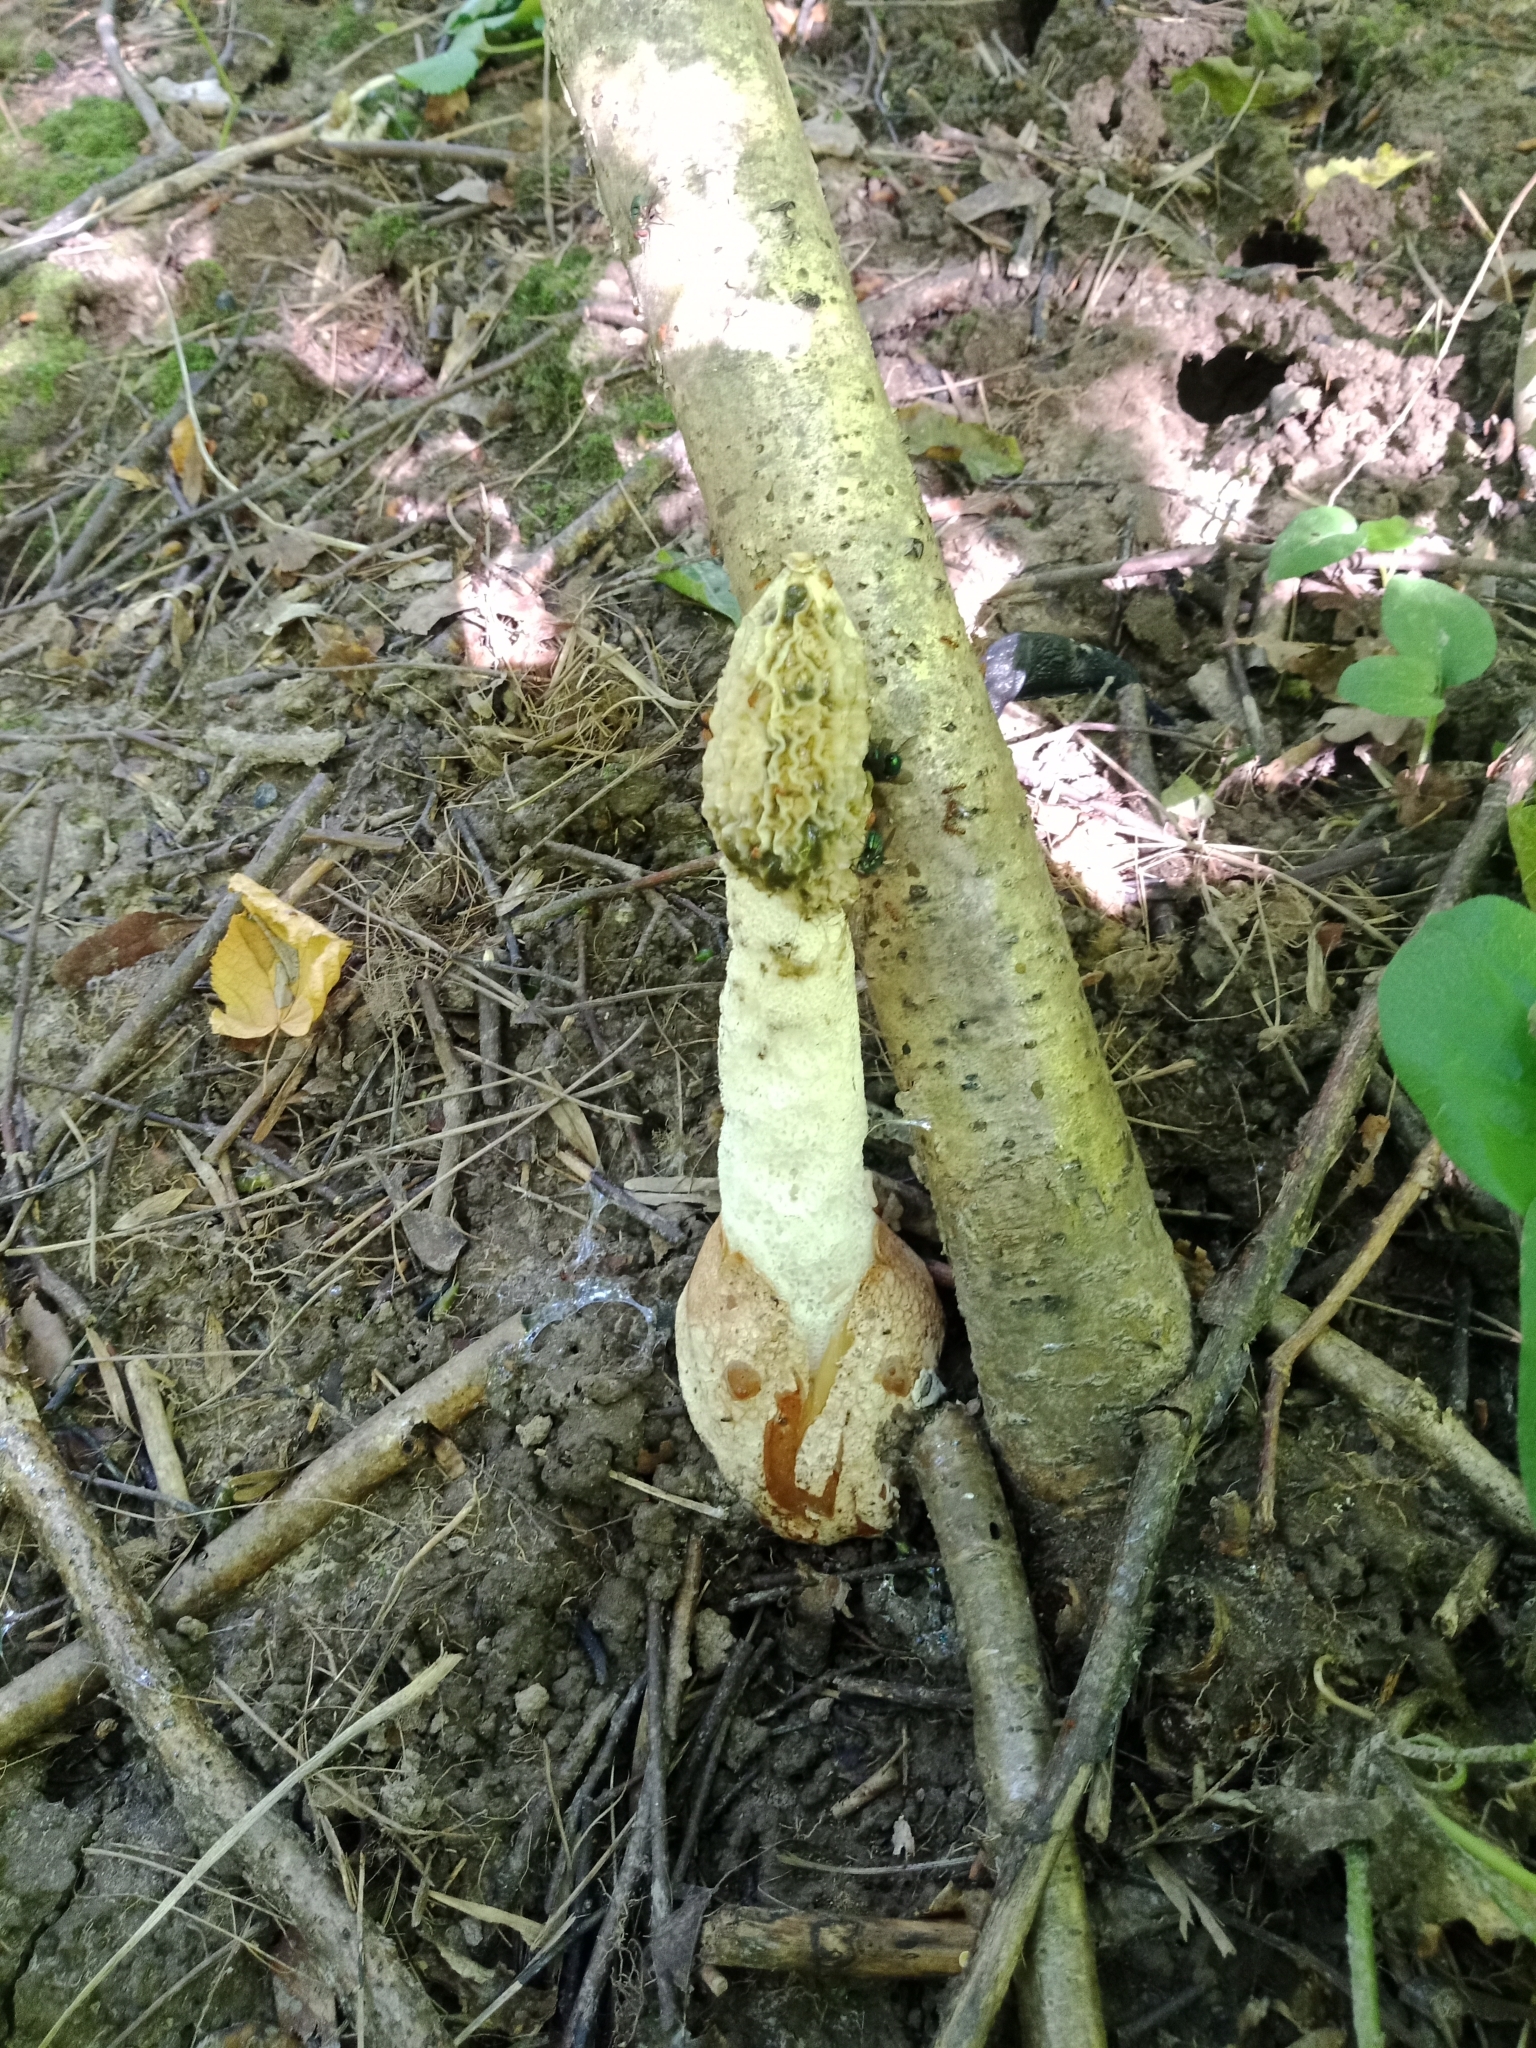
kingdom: Fungi
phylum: Basidiomycota
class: Agaricomycetes
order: Phallales
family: Phallaceae
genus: Phallus
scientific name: Phallus impudicus
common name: Common stinkhorn
